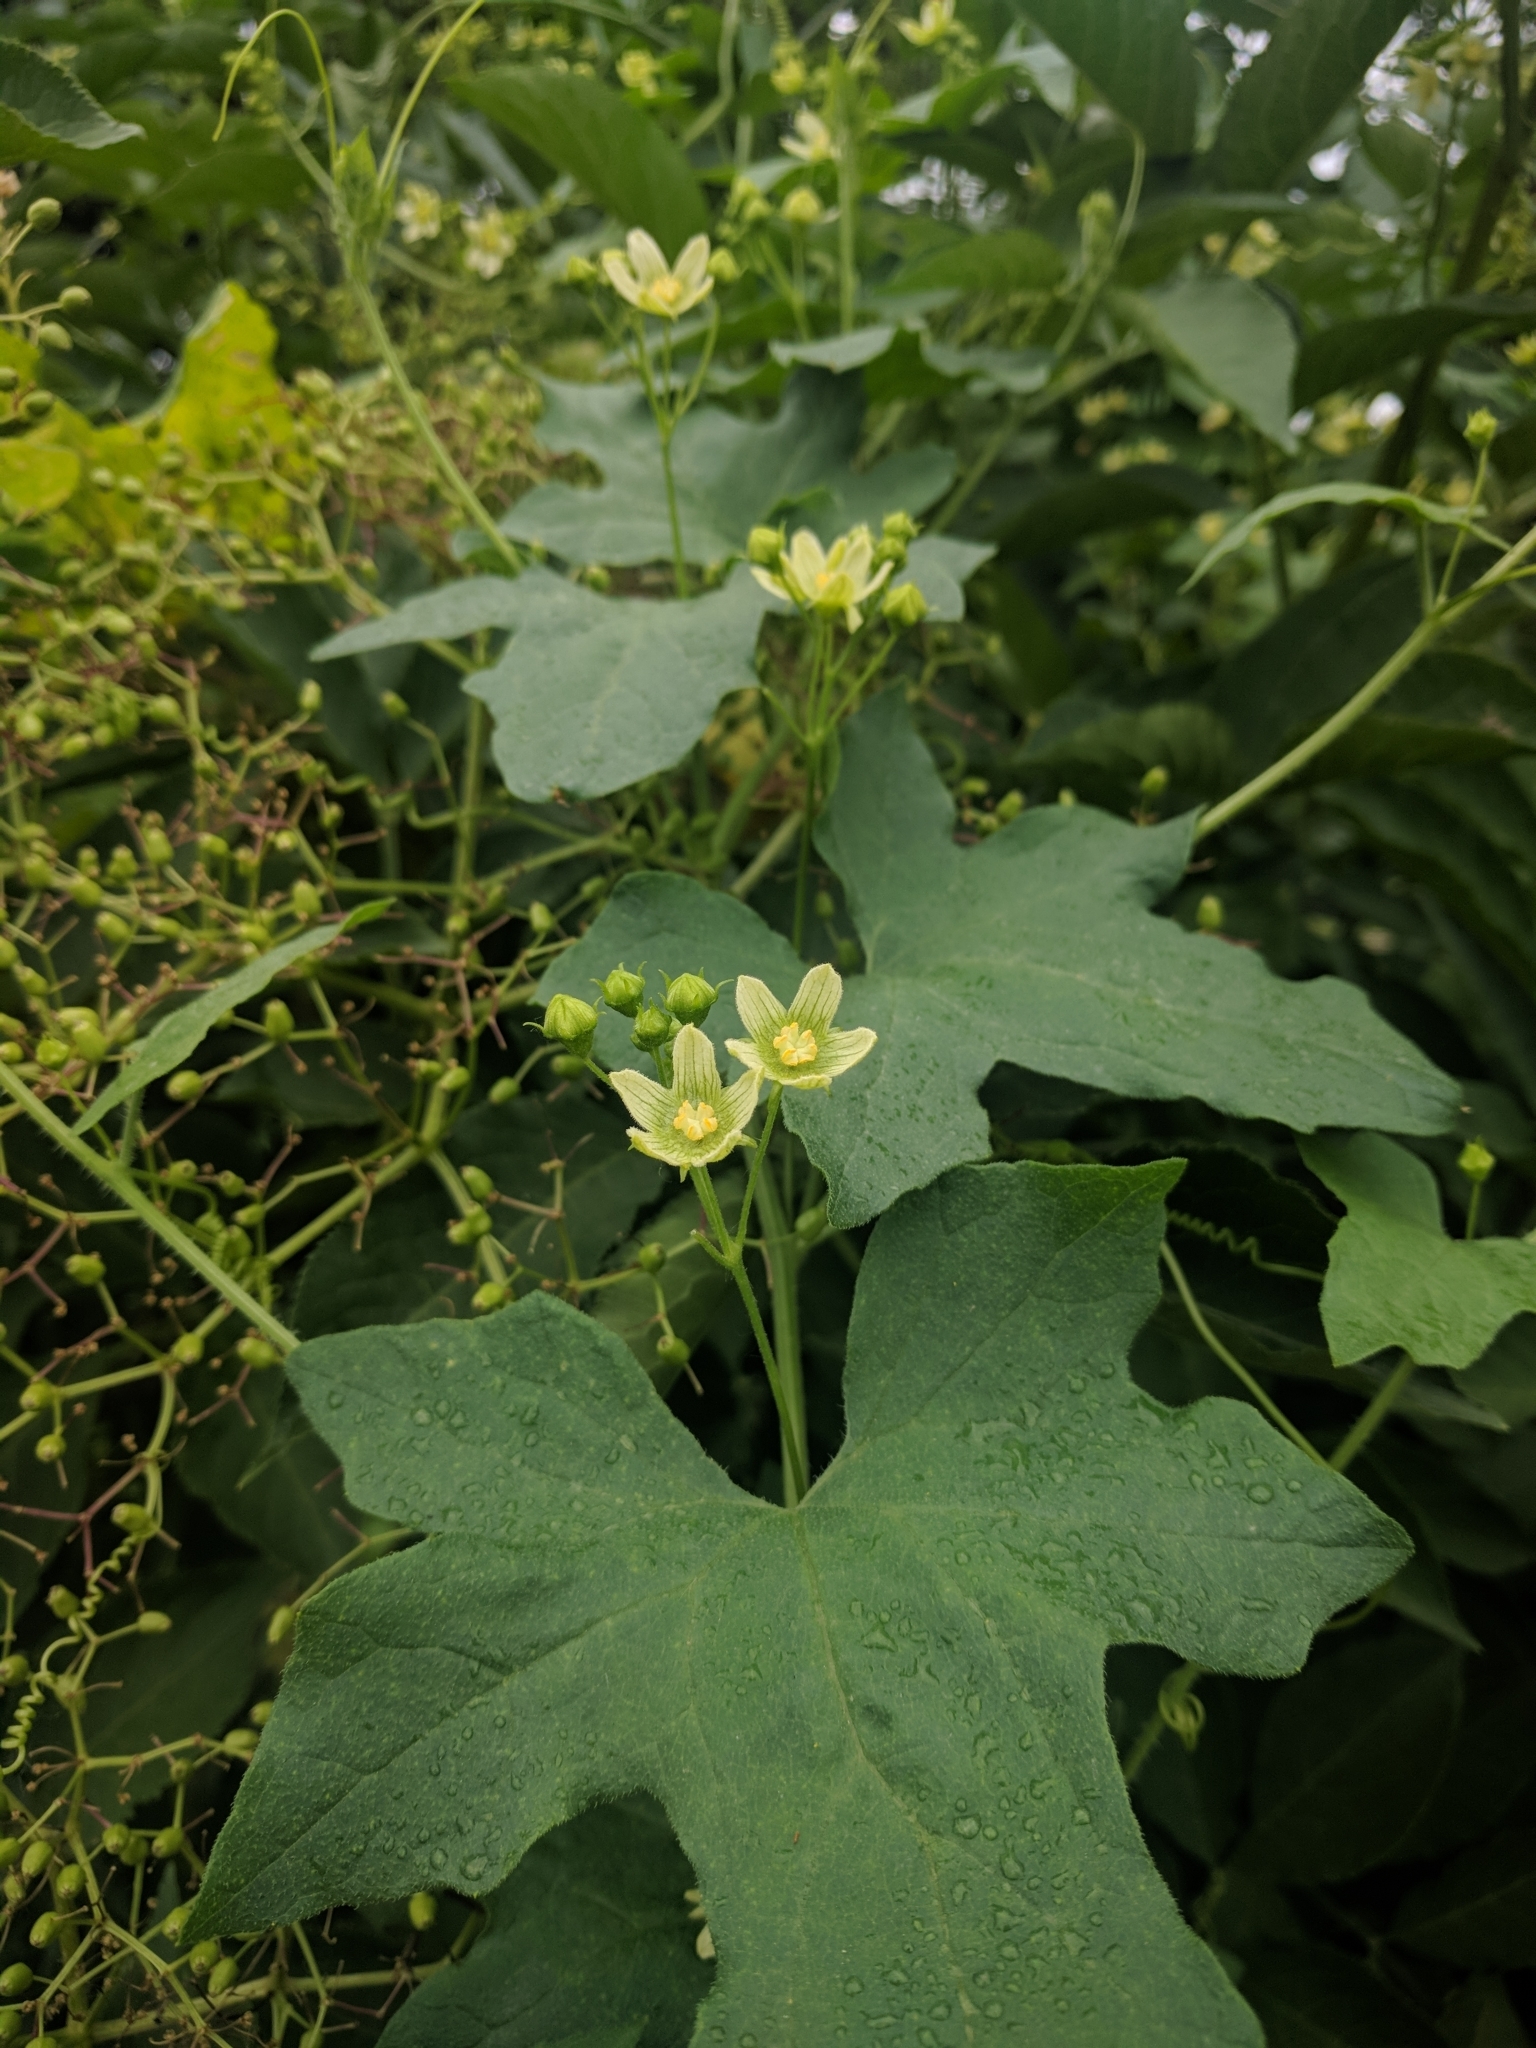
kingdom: Plantae
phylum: Tracheophyta
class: Magnoliopsida
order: Cucurbitales
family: Cucurbitaceae
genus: Bryonia
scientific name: Bryonia cretica
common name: Cretan bryony
